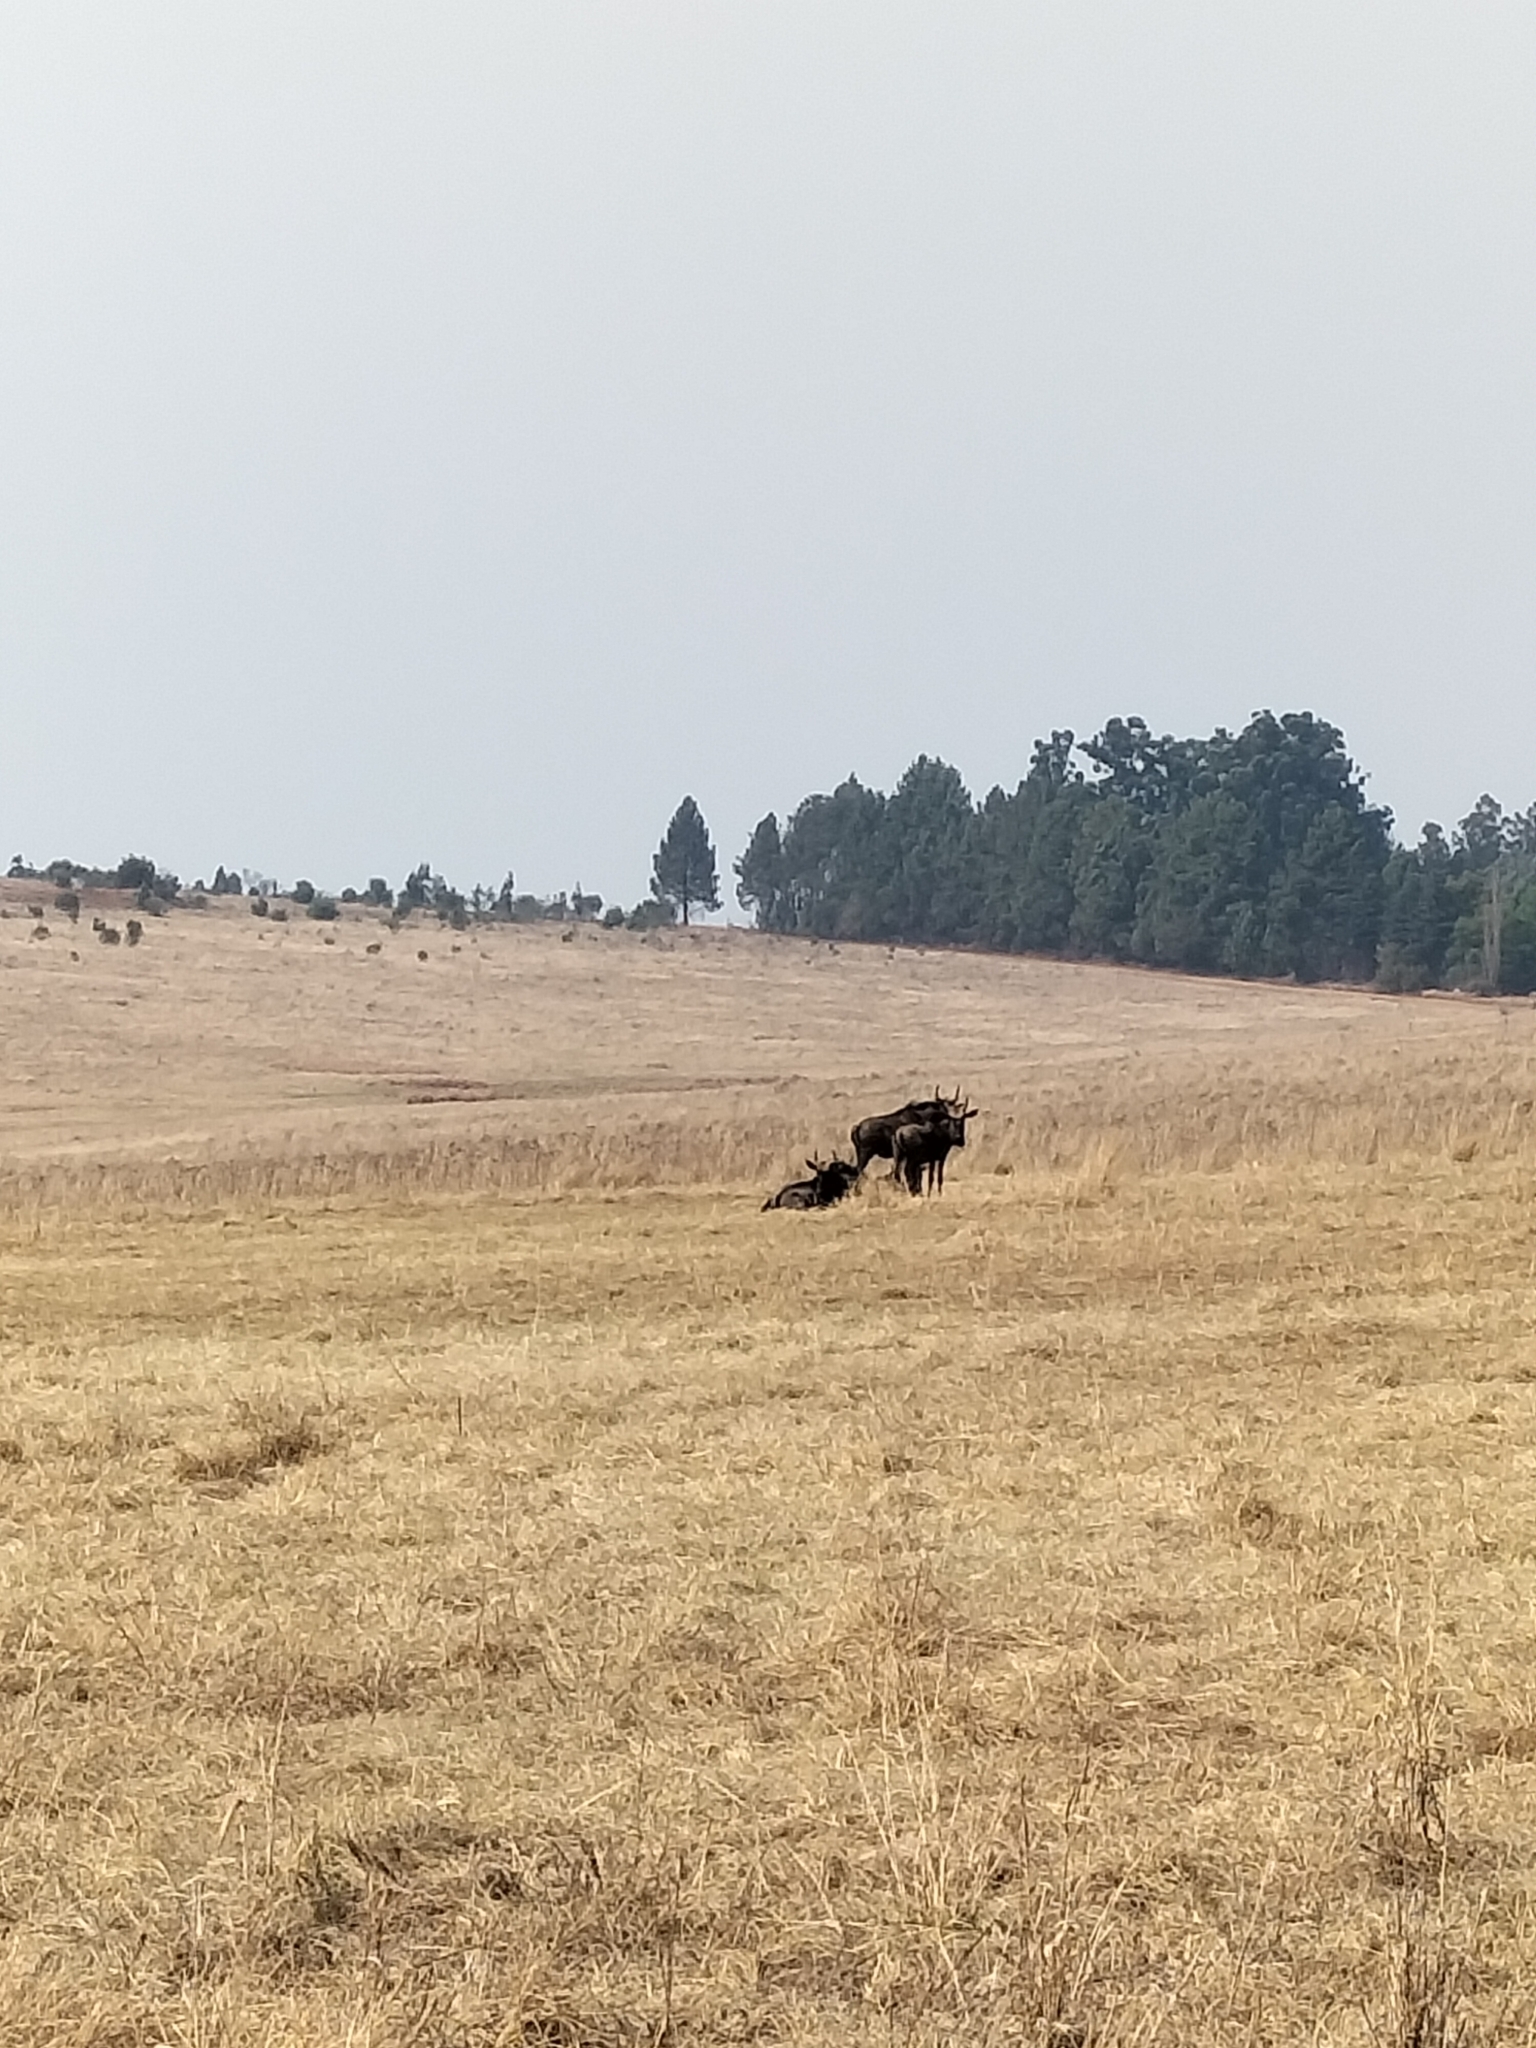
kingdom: Animalia
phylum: Chordata
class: Mammalia
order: Artiodactyla
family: Bovidae
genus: Connochaetes
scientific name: Connochaetes taurinus
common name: Blue wildebeest
